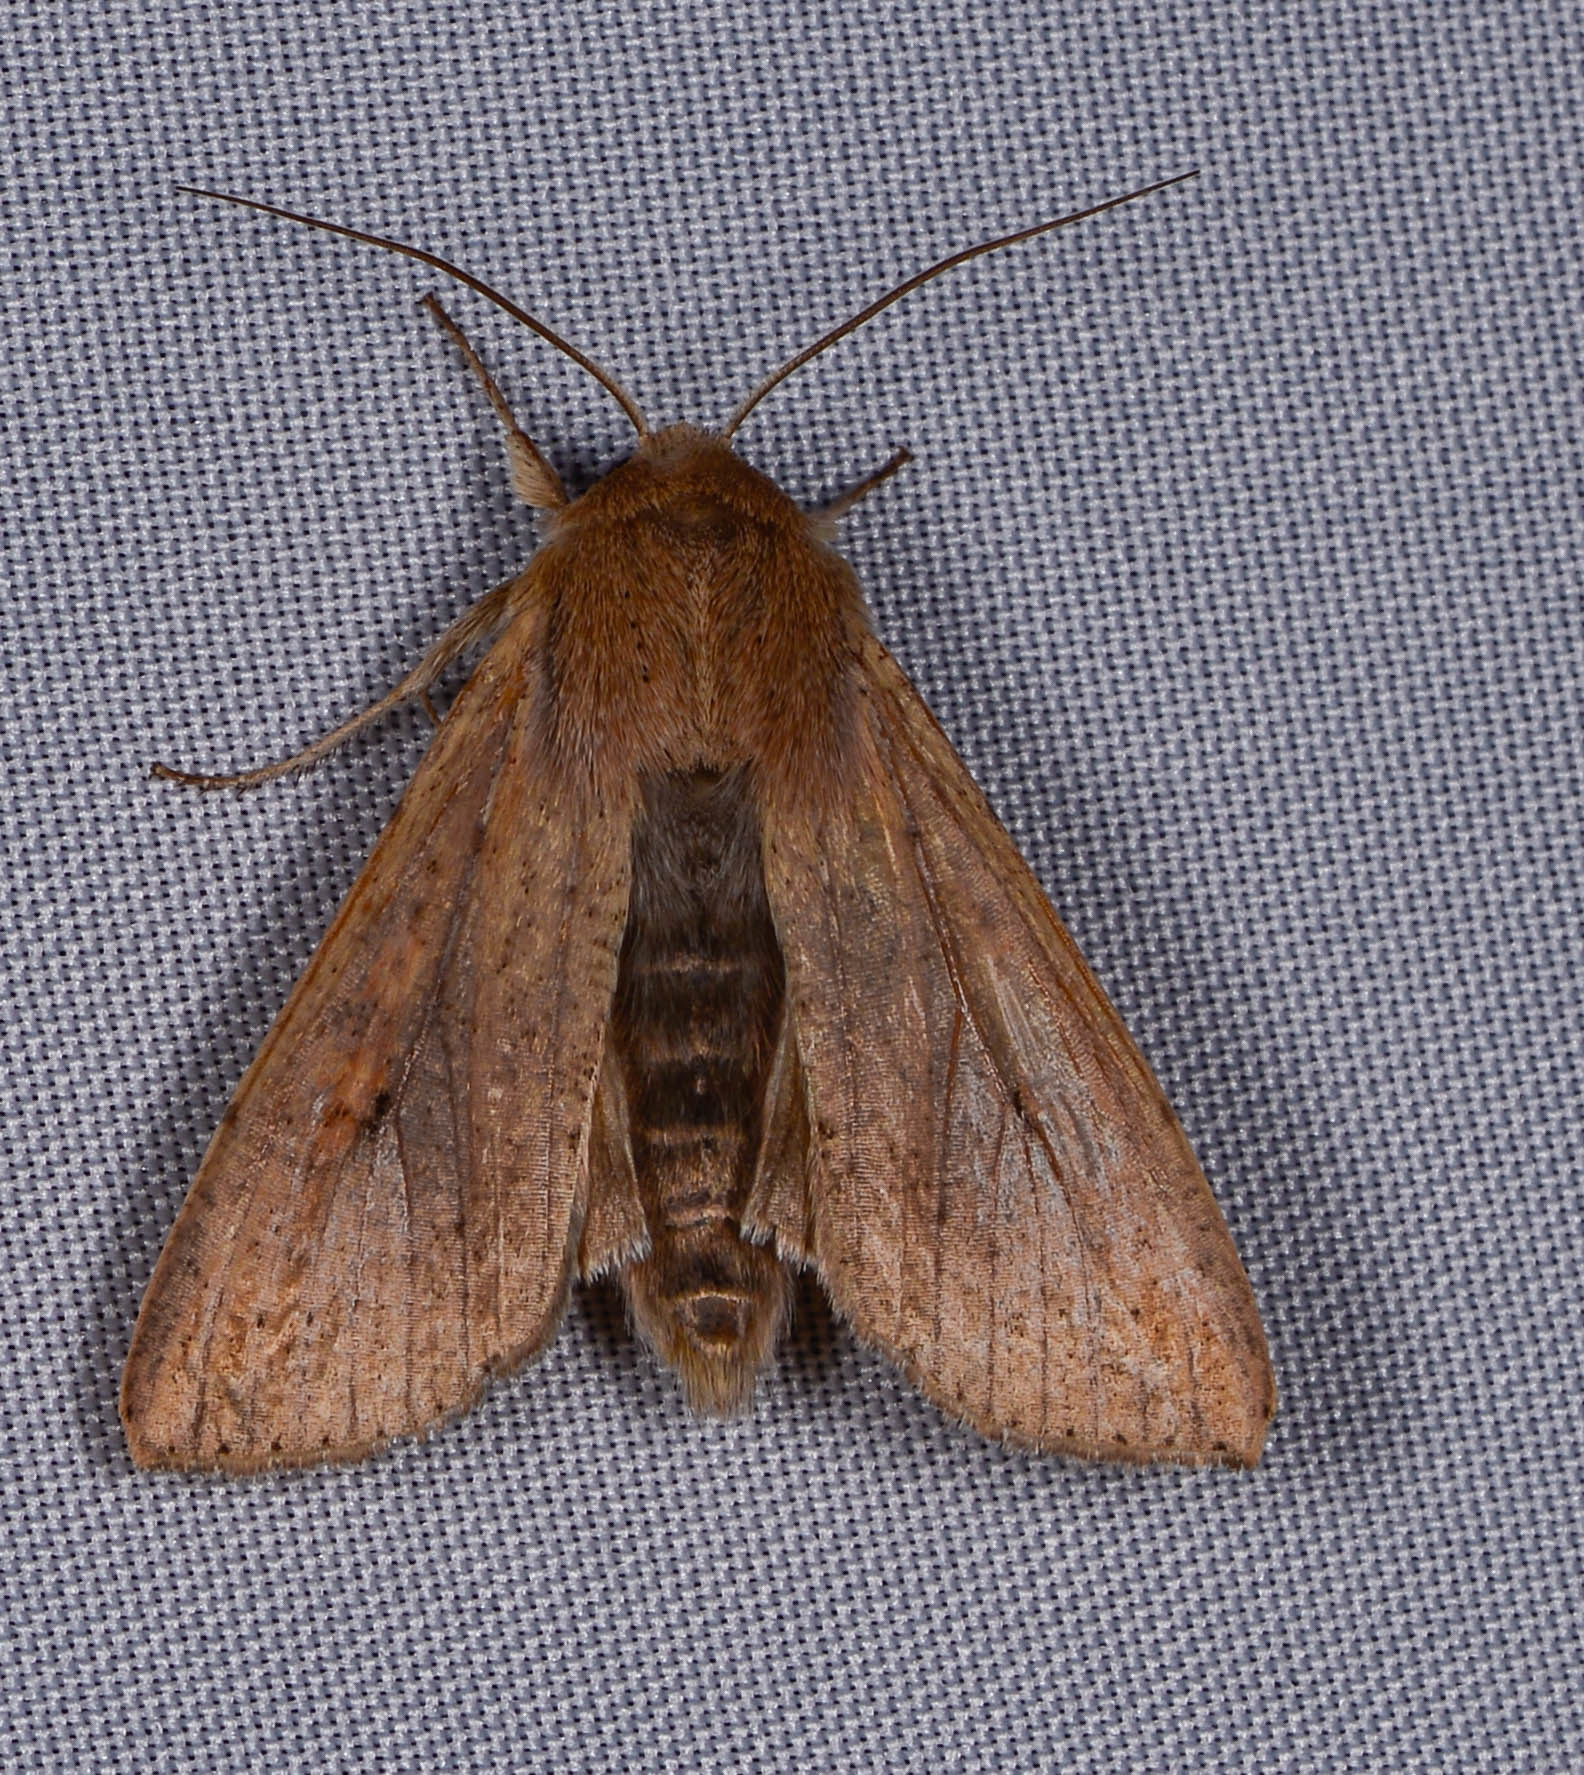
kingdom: Animalia
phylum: Arthropoda
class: Insecta
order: Lepidoptera
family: Noctuidae
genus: Mythimna
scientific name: Mythimna unipuncta
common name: White-speck
